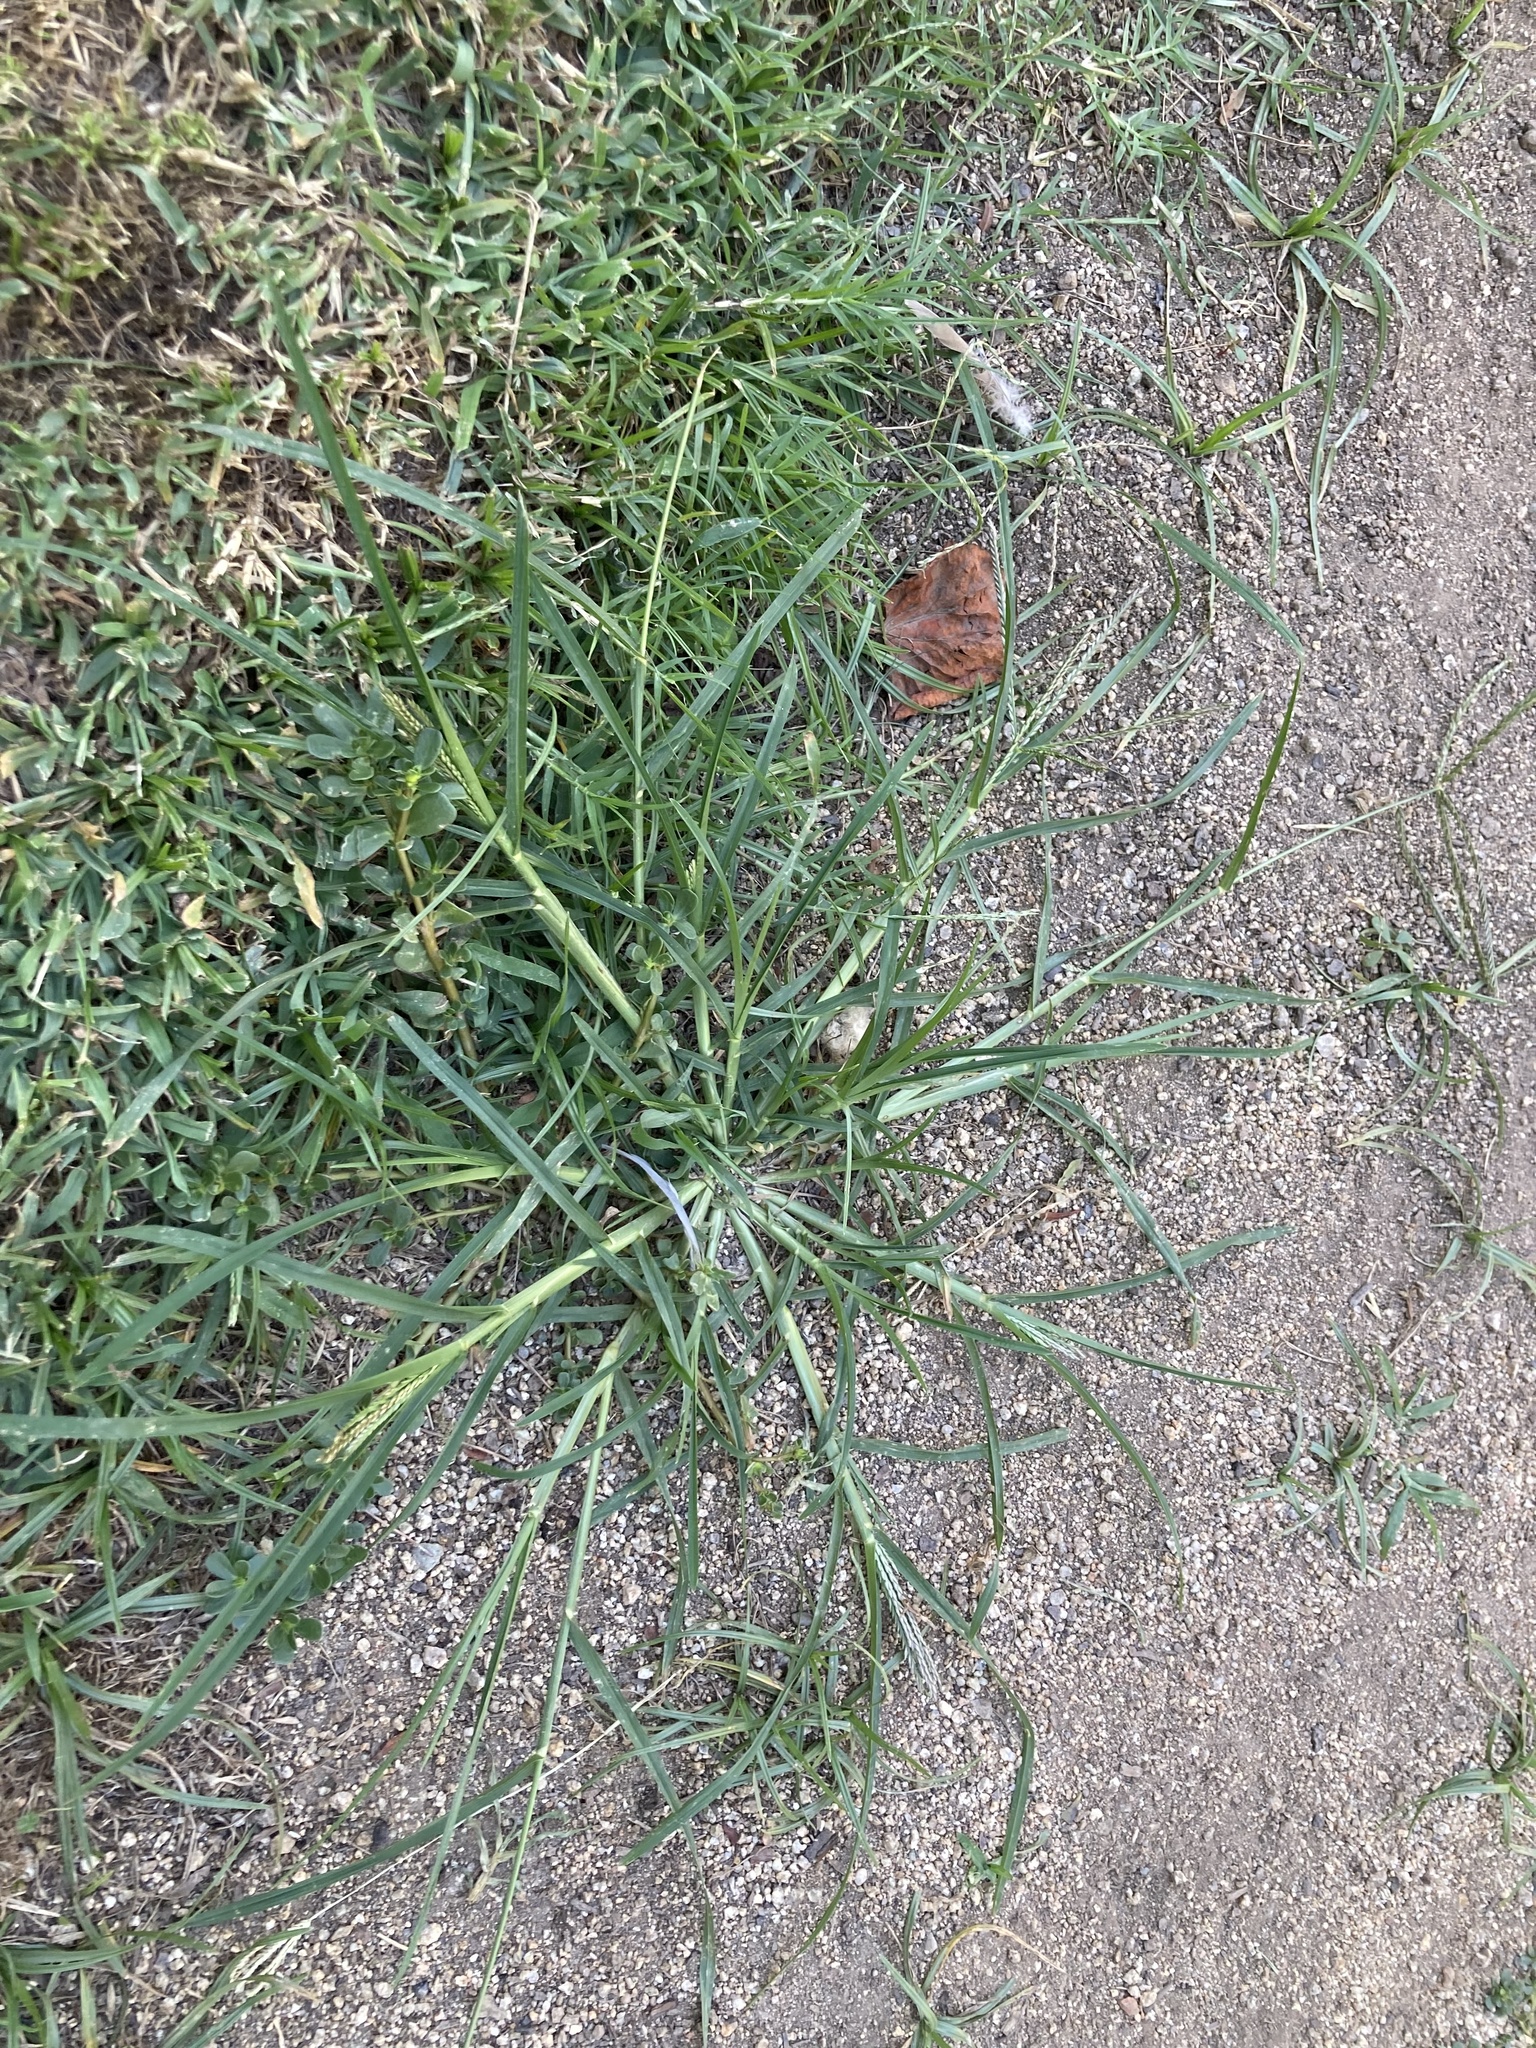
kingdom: Plantae
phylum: Tracheophyta
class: Liliopsida
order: Poales
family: Poaceae
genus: Eleusine
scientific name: Eleusine indica
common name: Yard-grass
